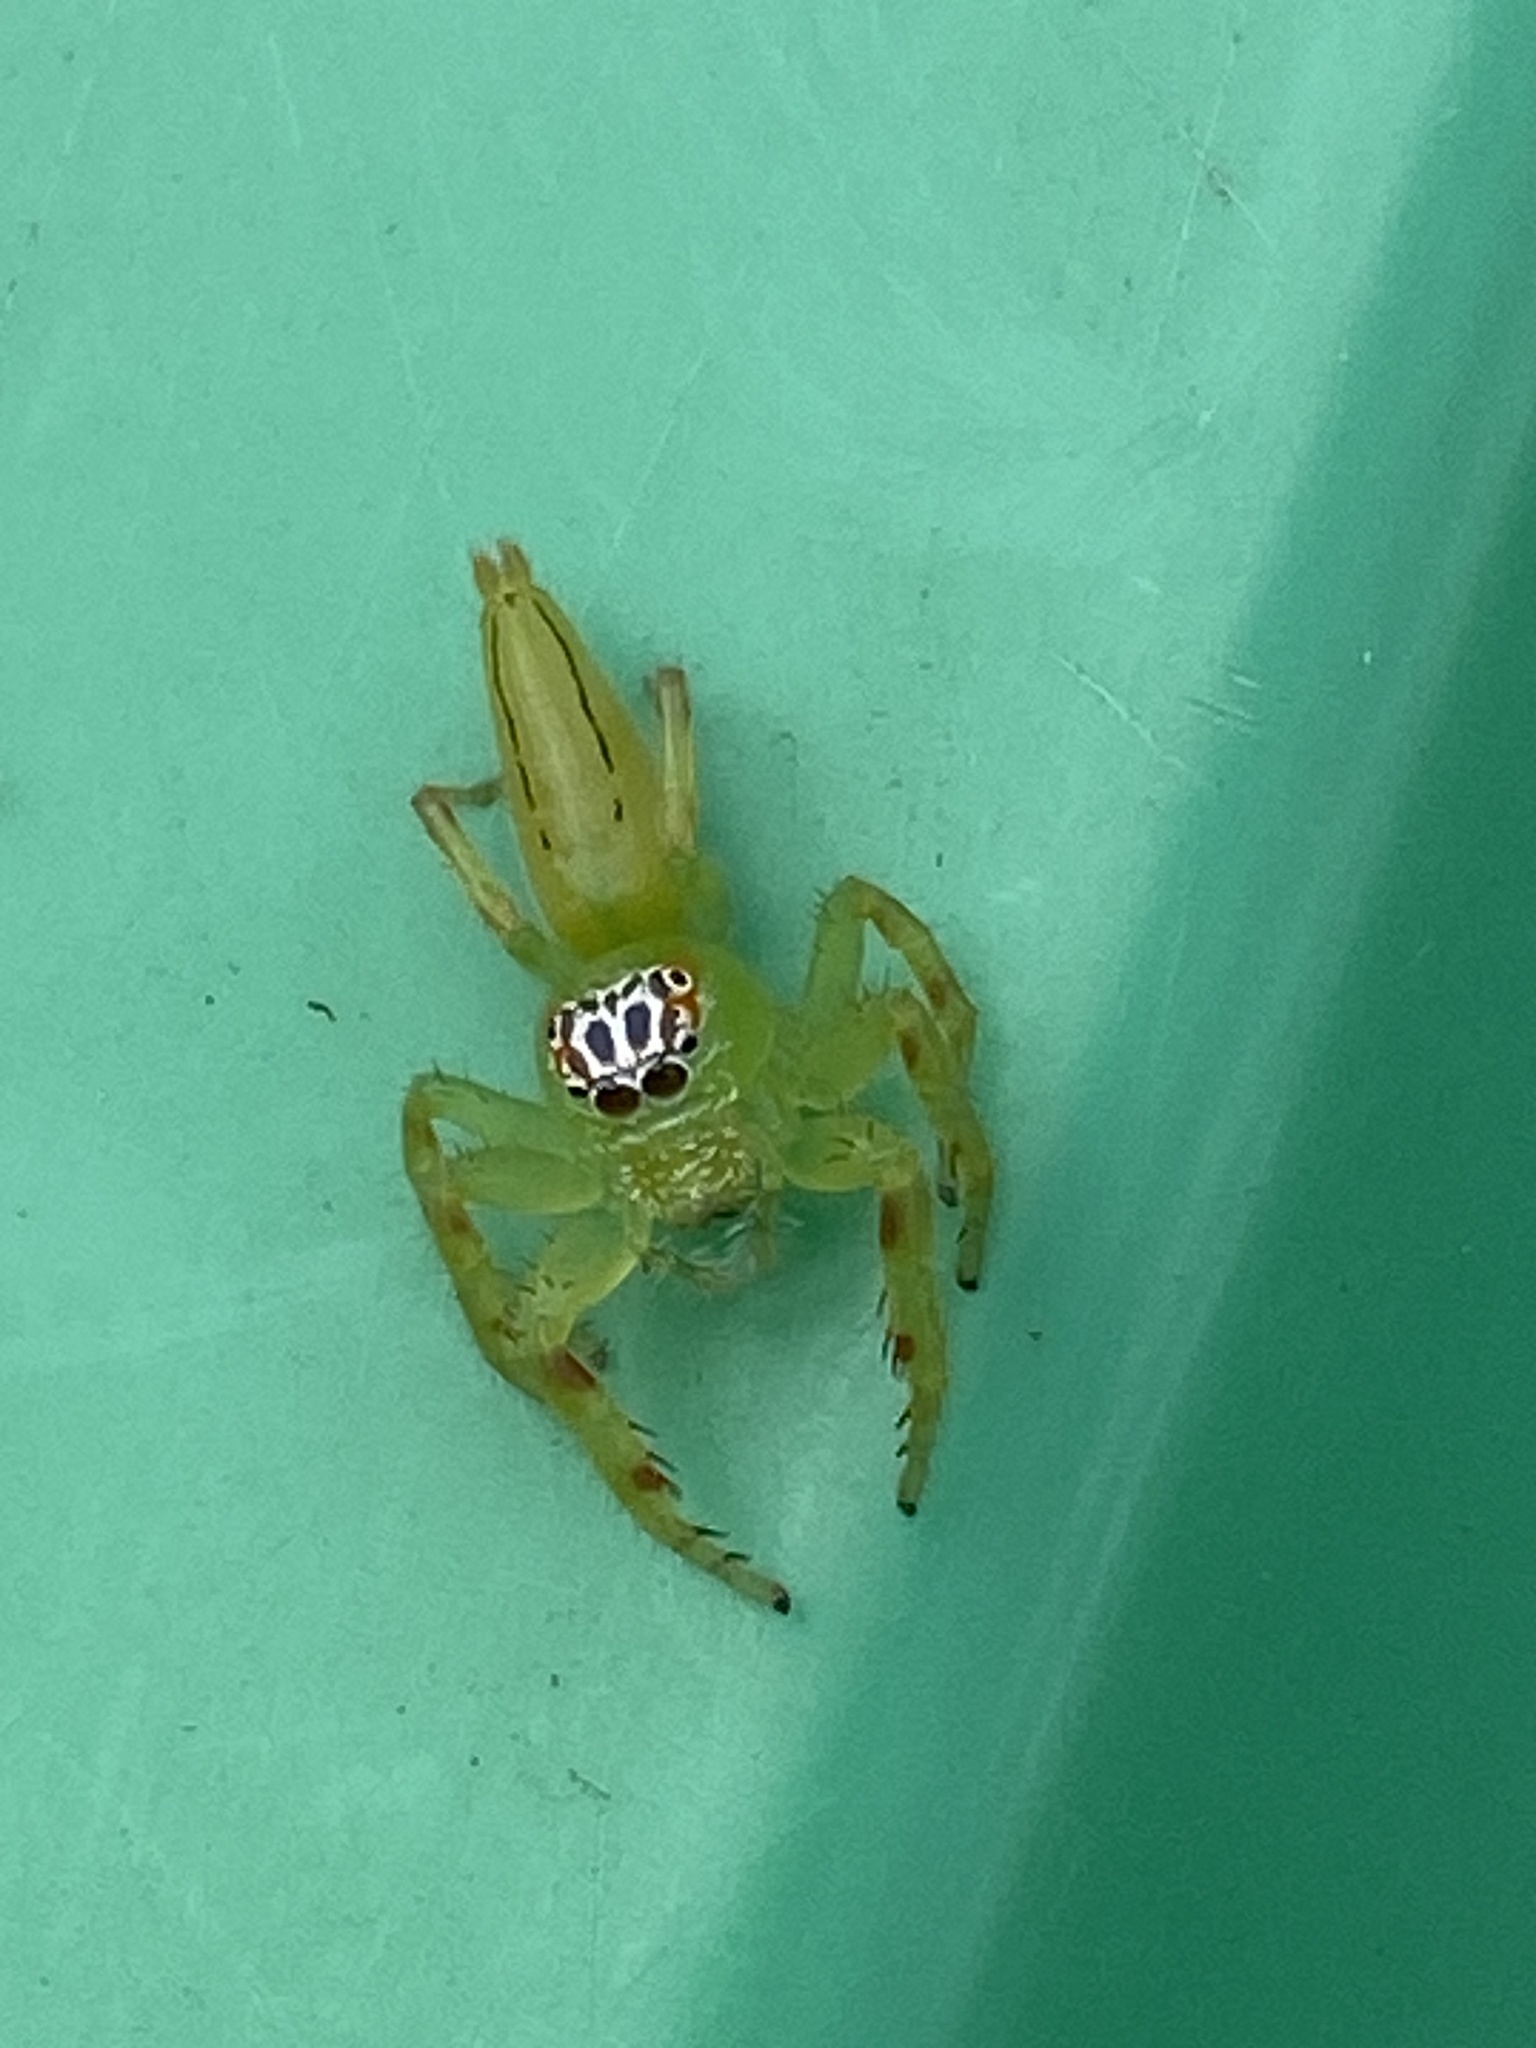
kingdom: Animalia
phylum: Arthropoda
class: Arachnida
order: Araneae
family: Salticidae
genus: Mopsus
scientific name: Mopsus mormon
